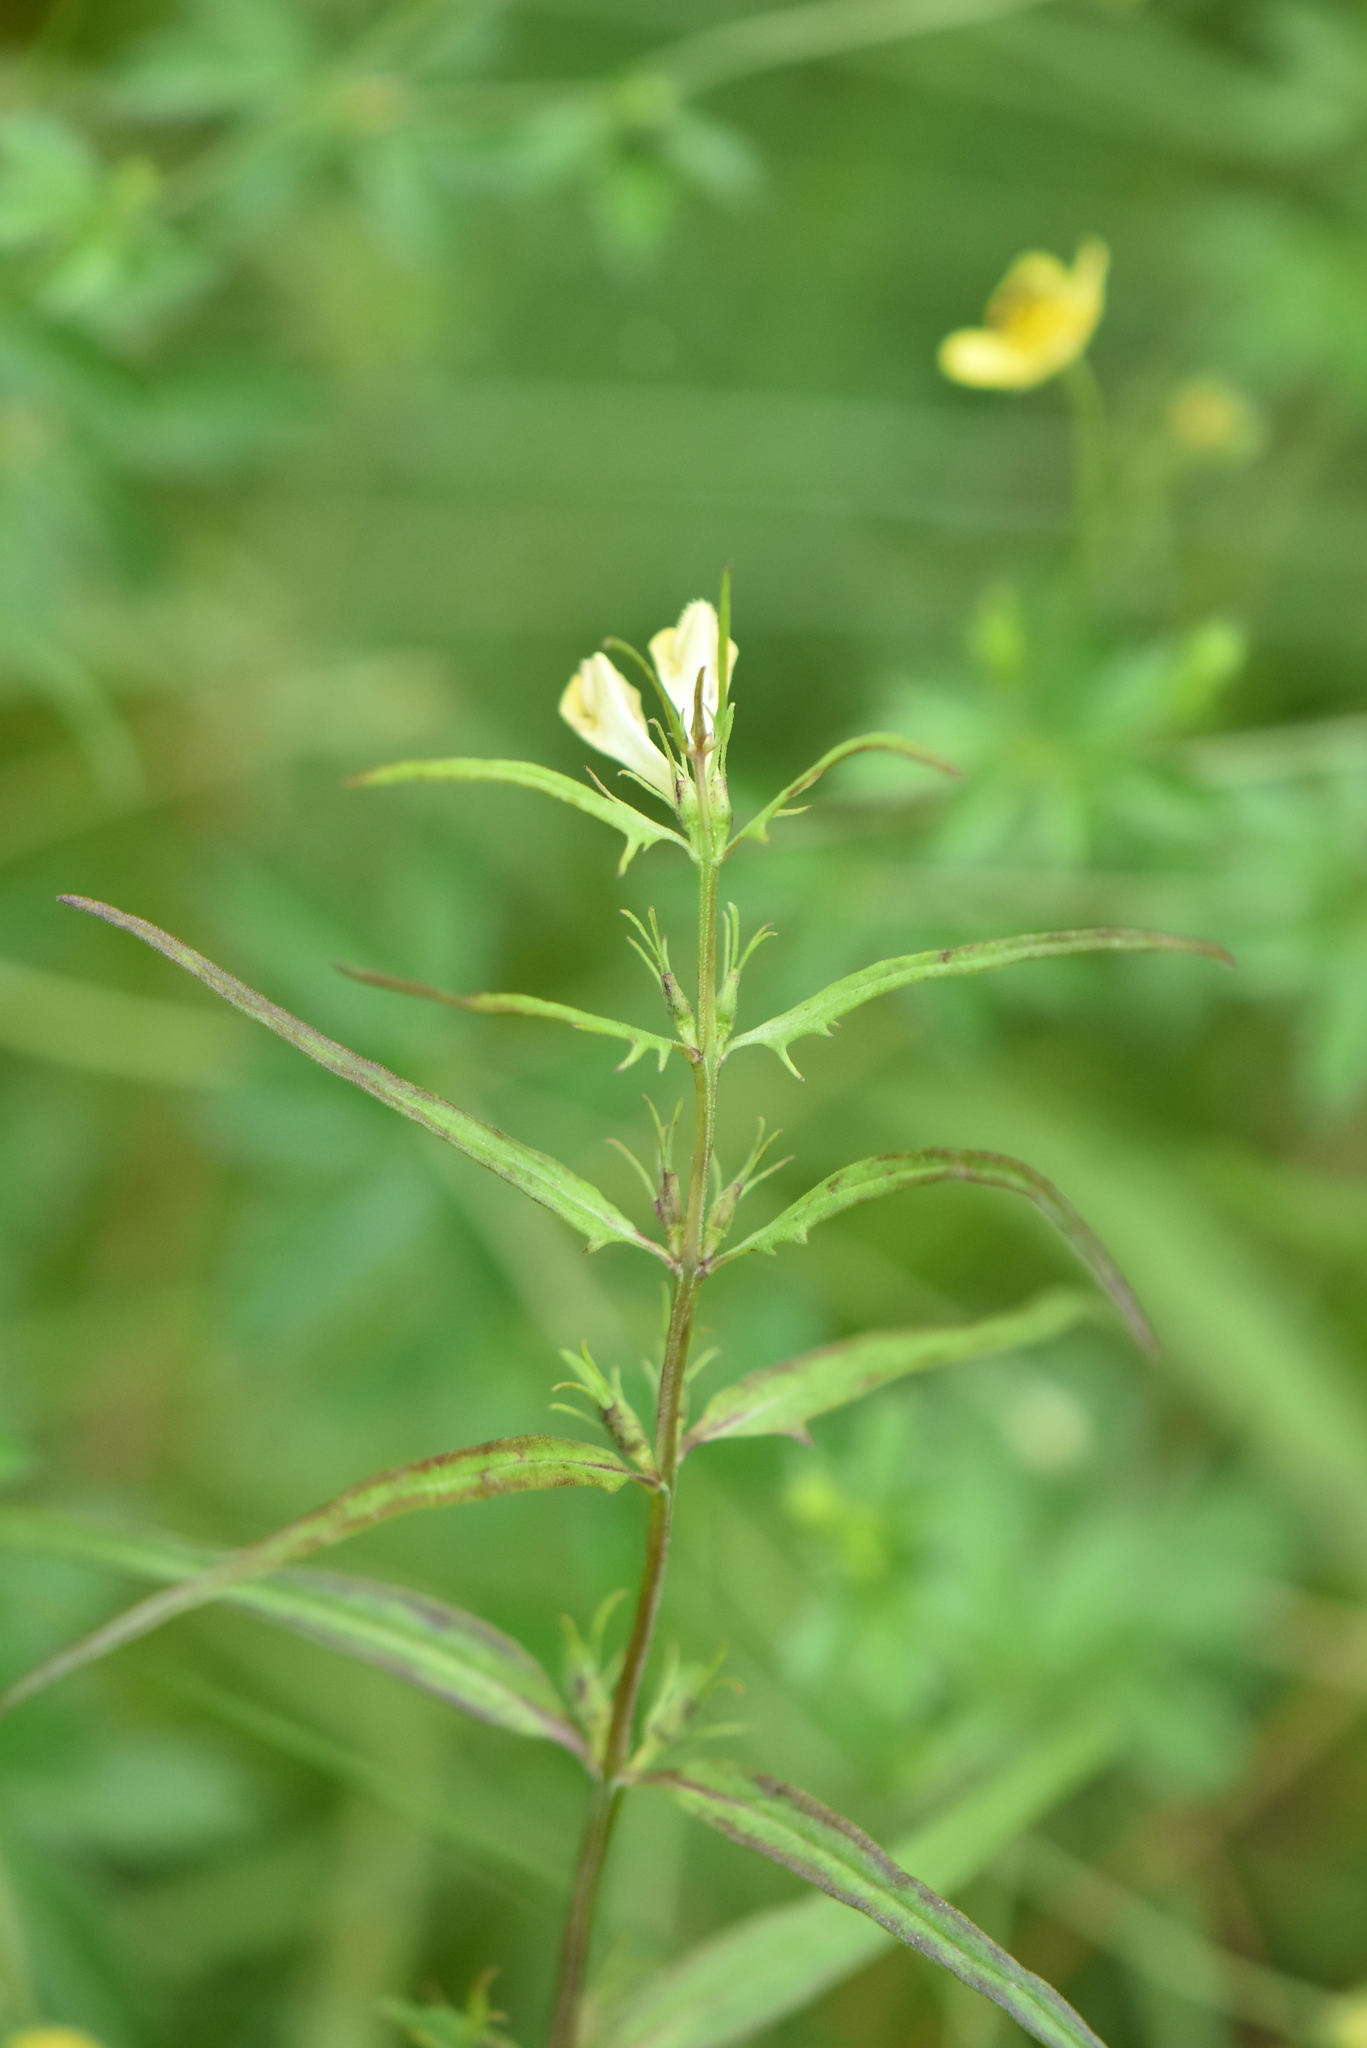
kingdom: Plantae
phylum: Tracheophyta
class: Magnoliopsida
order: Lamiales
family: Orobanchaceae
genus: Melampyrum
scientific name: Melampyrum pratense
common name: Common cow-wheat
